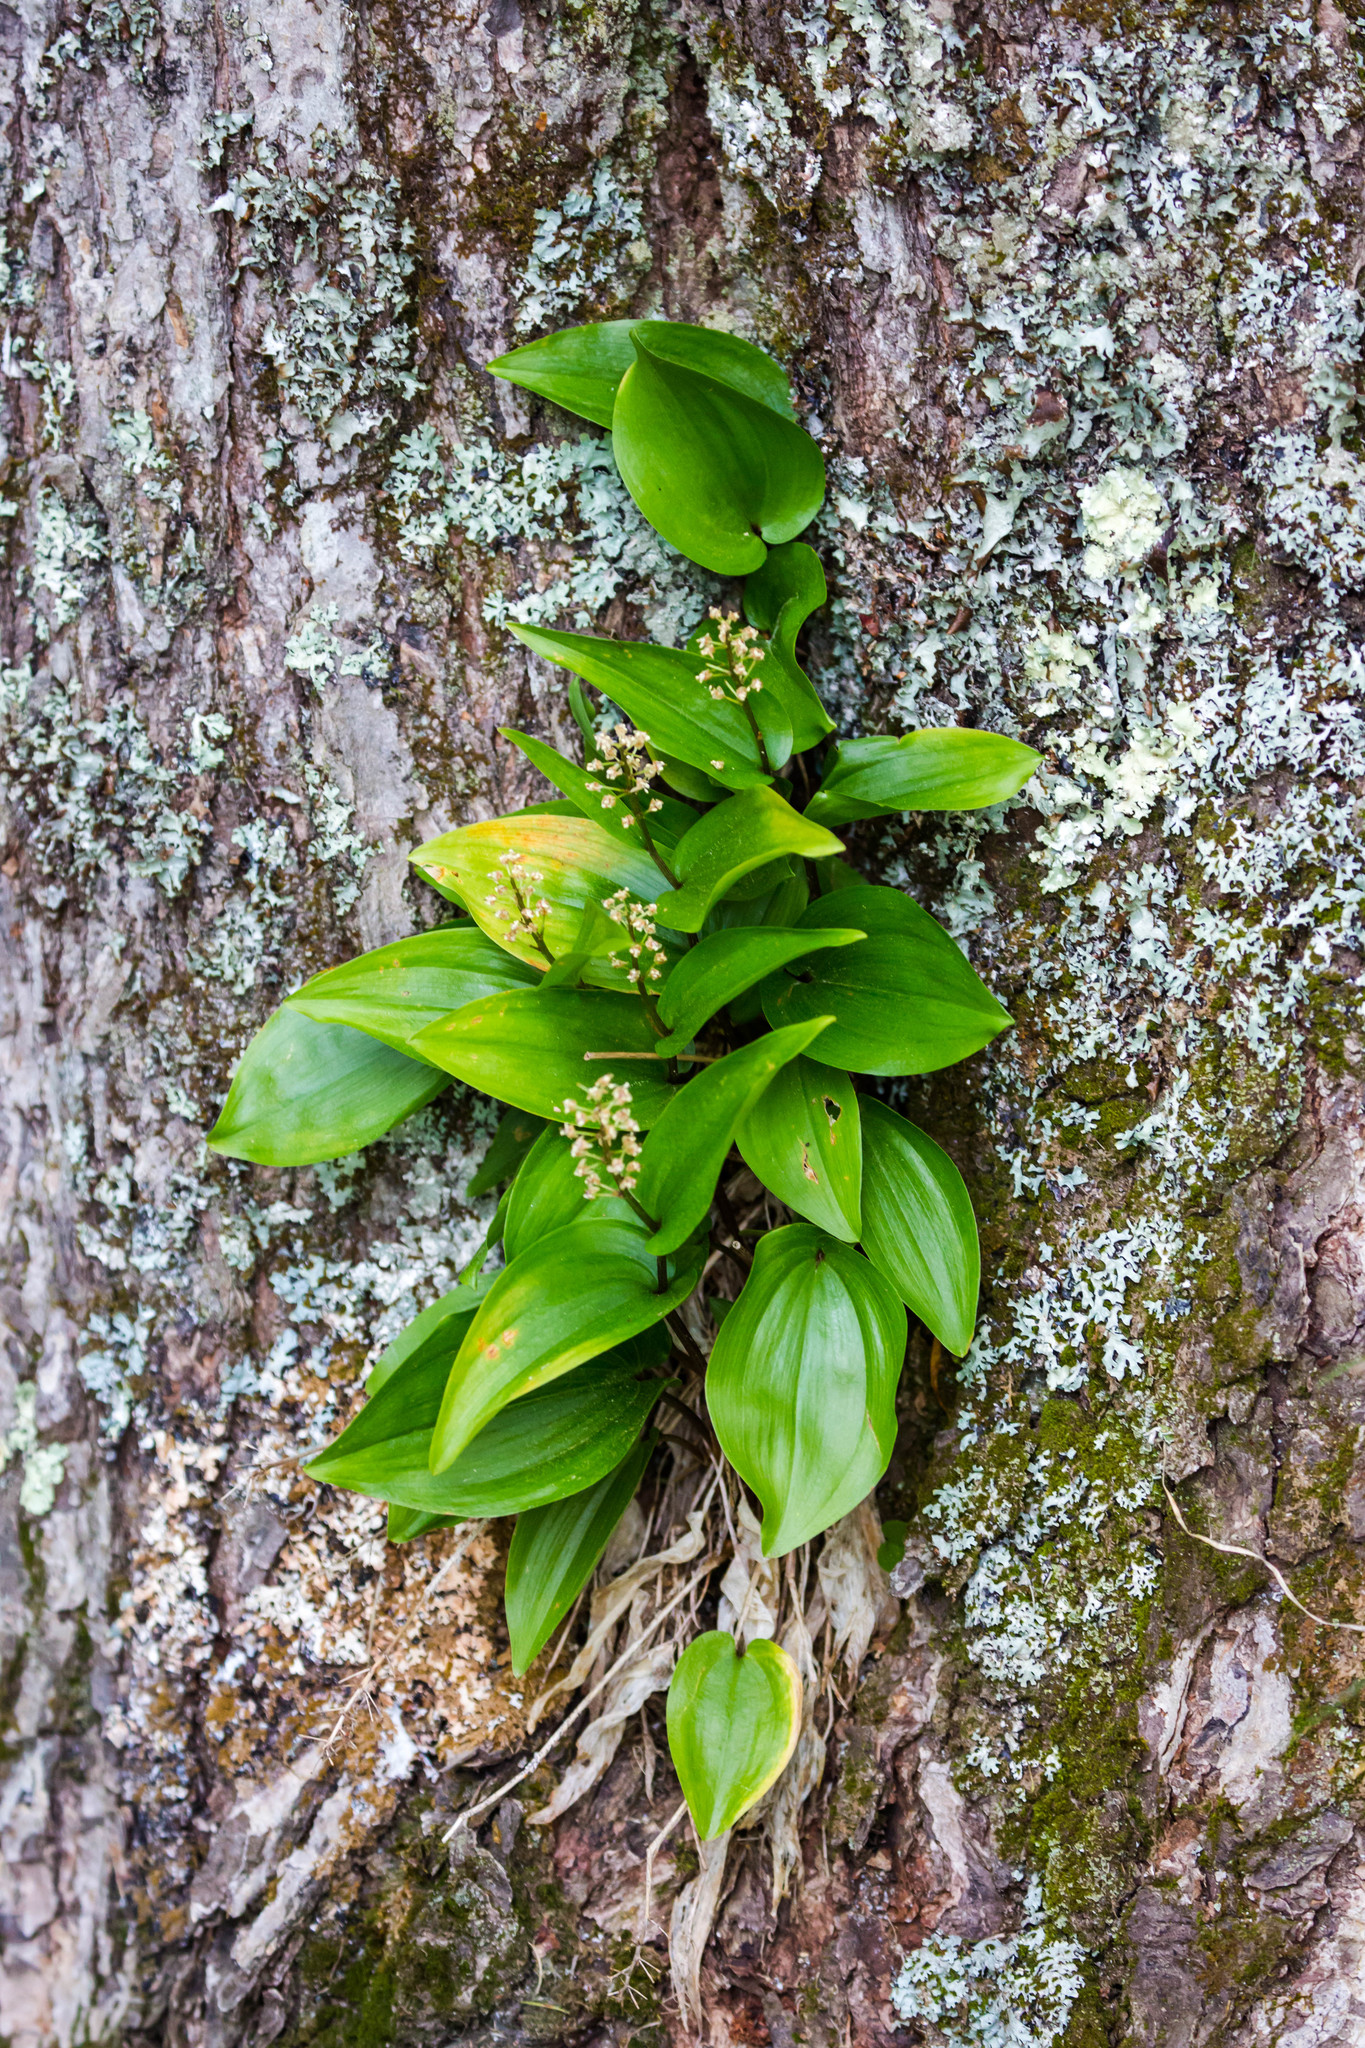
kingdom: Plantae
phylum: Tracheophyta
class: Liliopsida
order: Asparagales
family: Asparagaceae
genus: Maianthemum
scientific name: Maianthemum canadense
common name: False lily-of-the-valley
